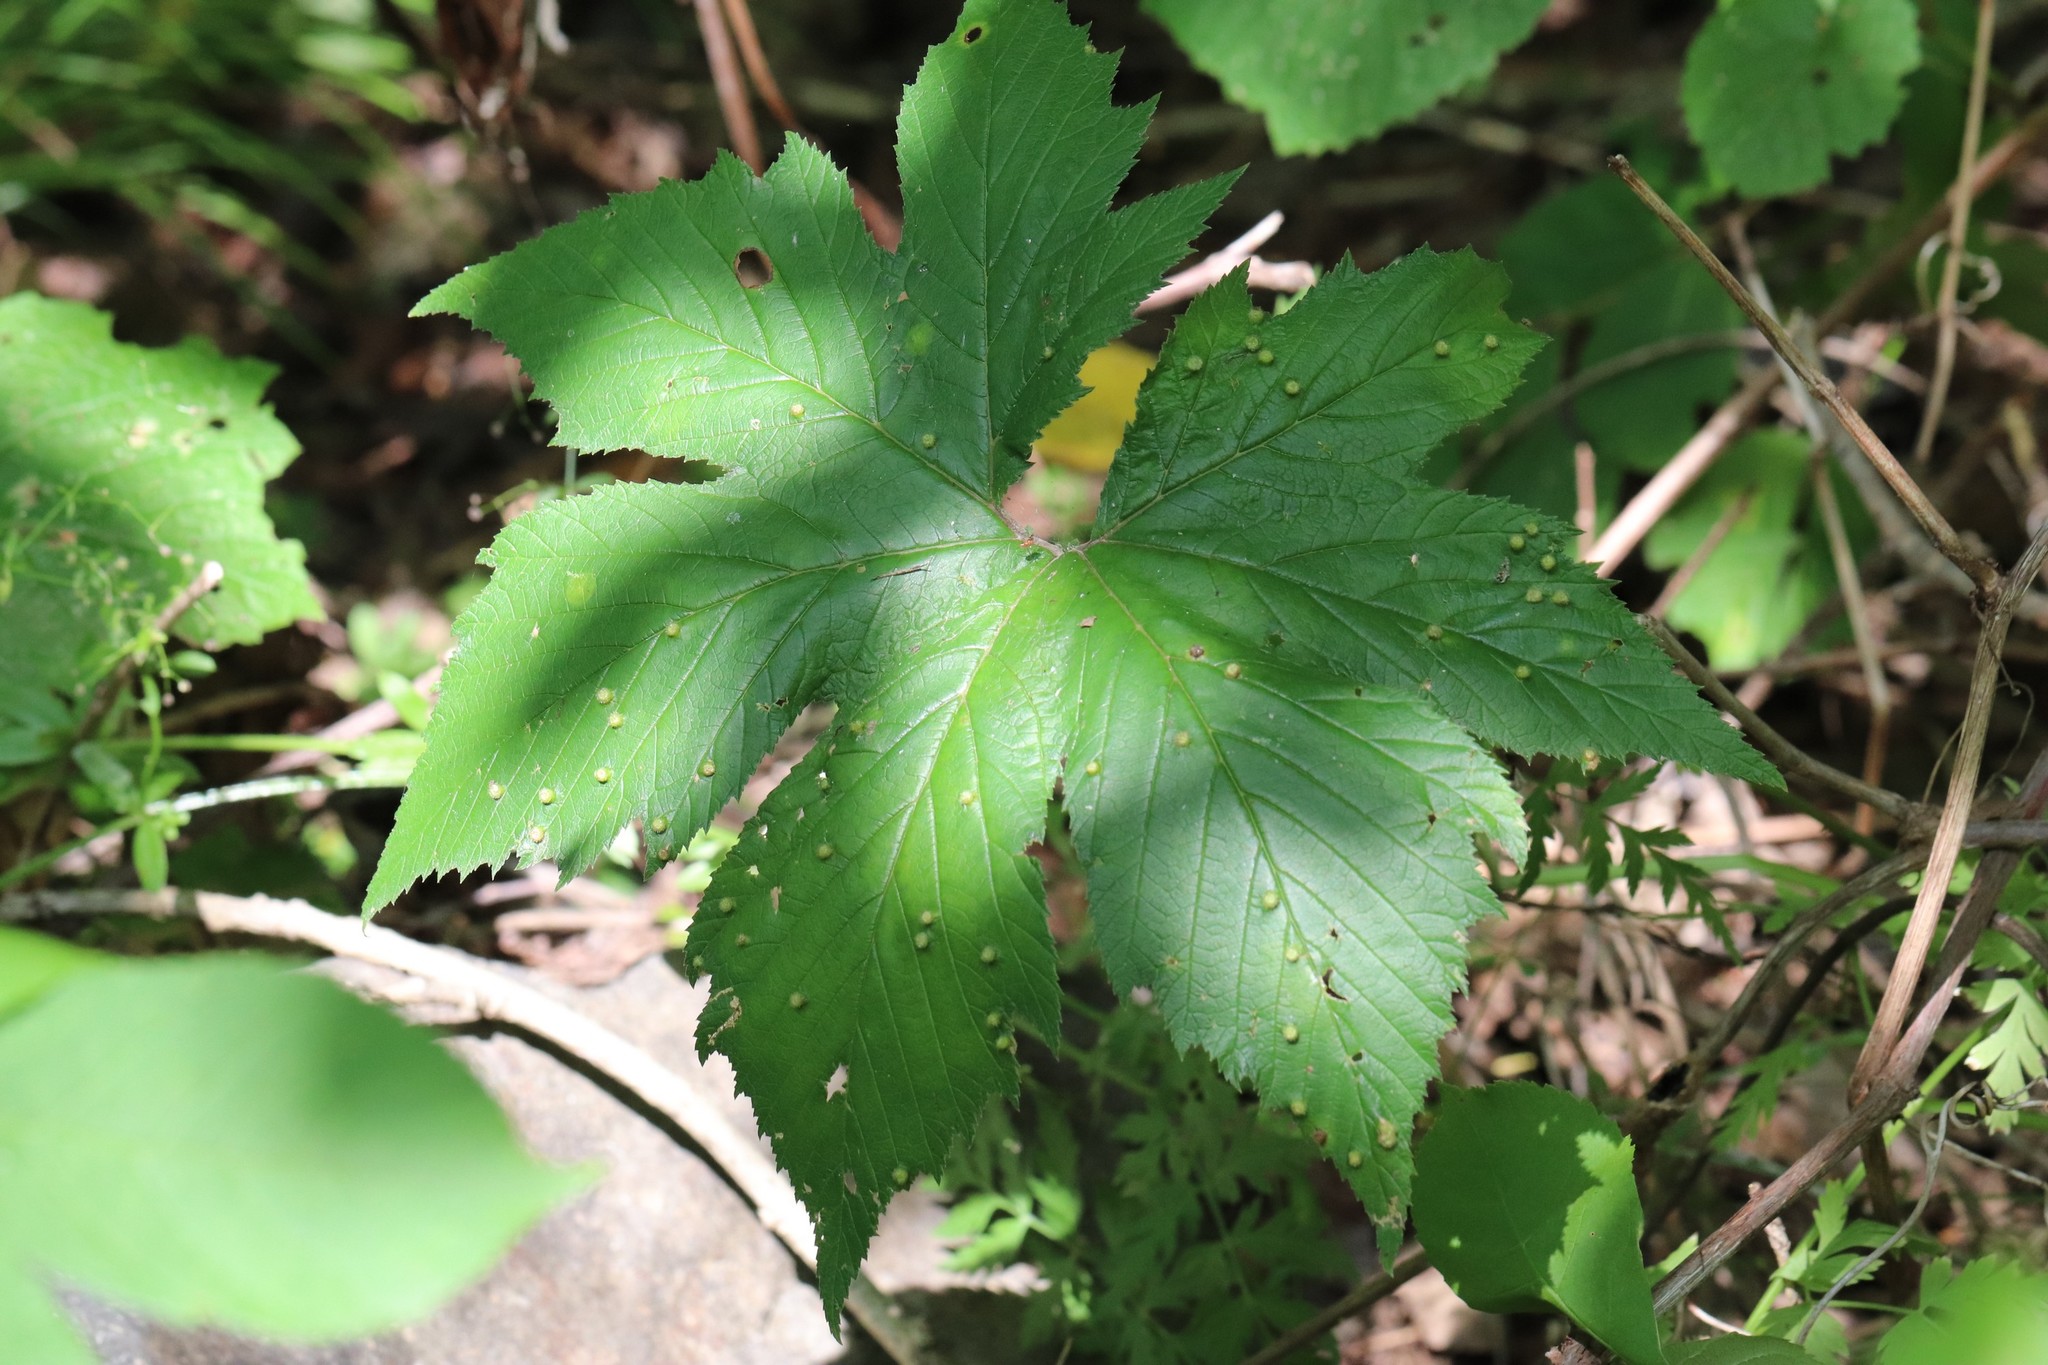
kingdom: Plantae
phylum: Tracheophyta
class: Magnoliopsida
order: Rosales
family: Rosaceae
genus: Filipendula
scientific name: Filipendula digitata
